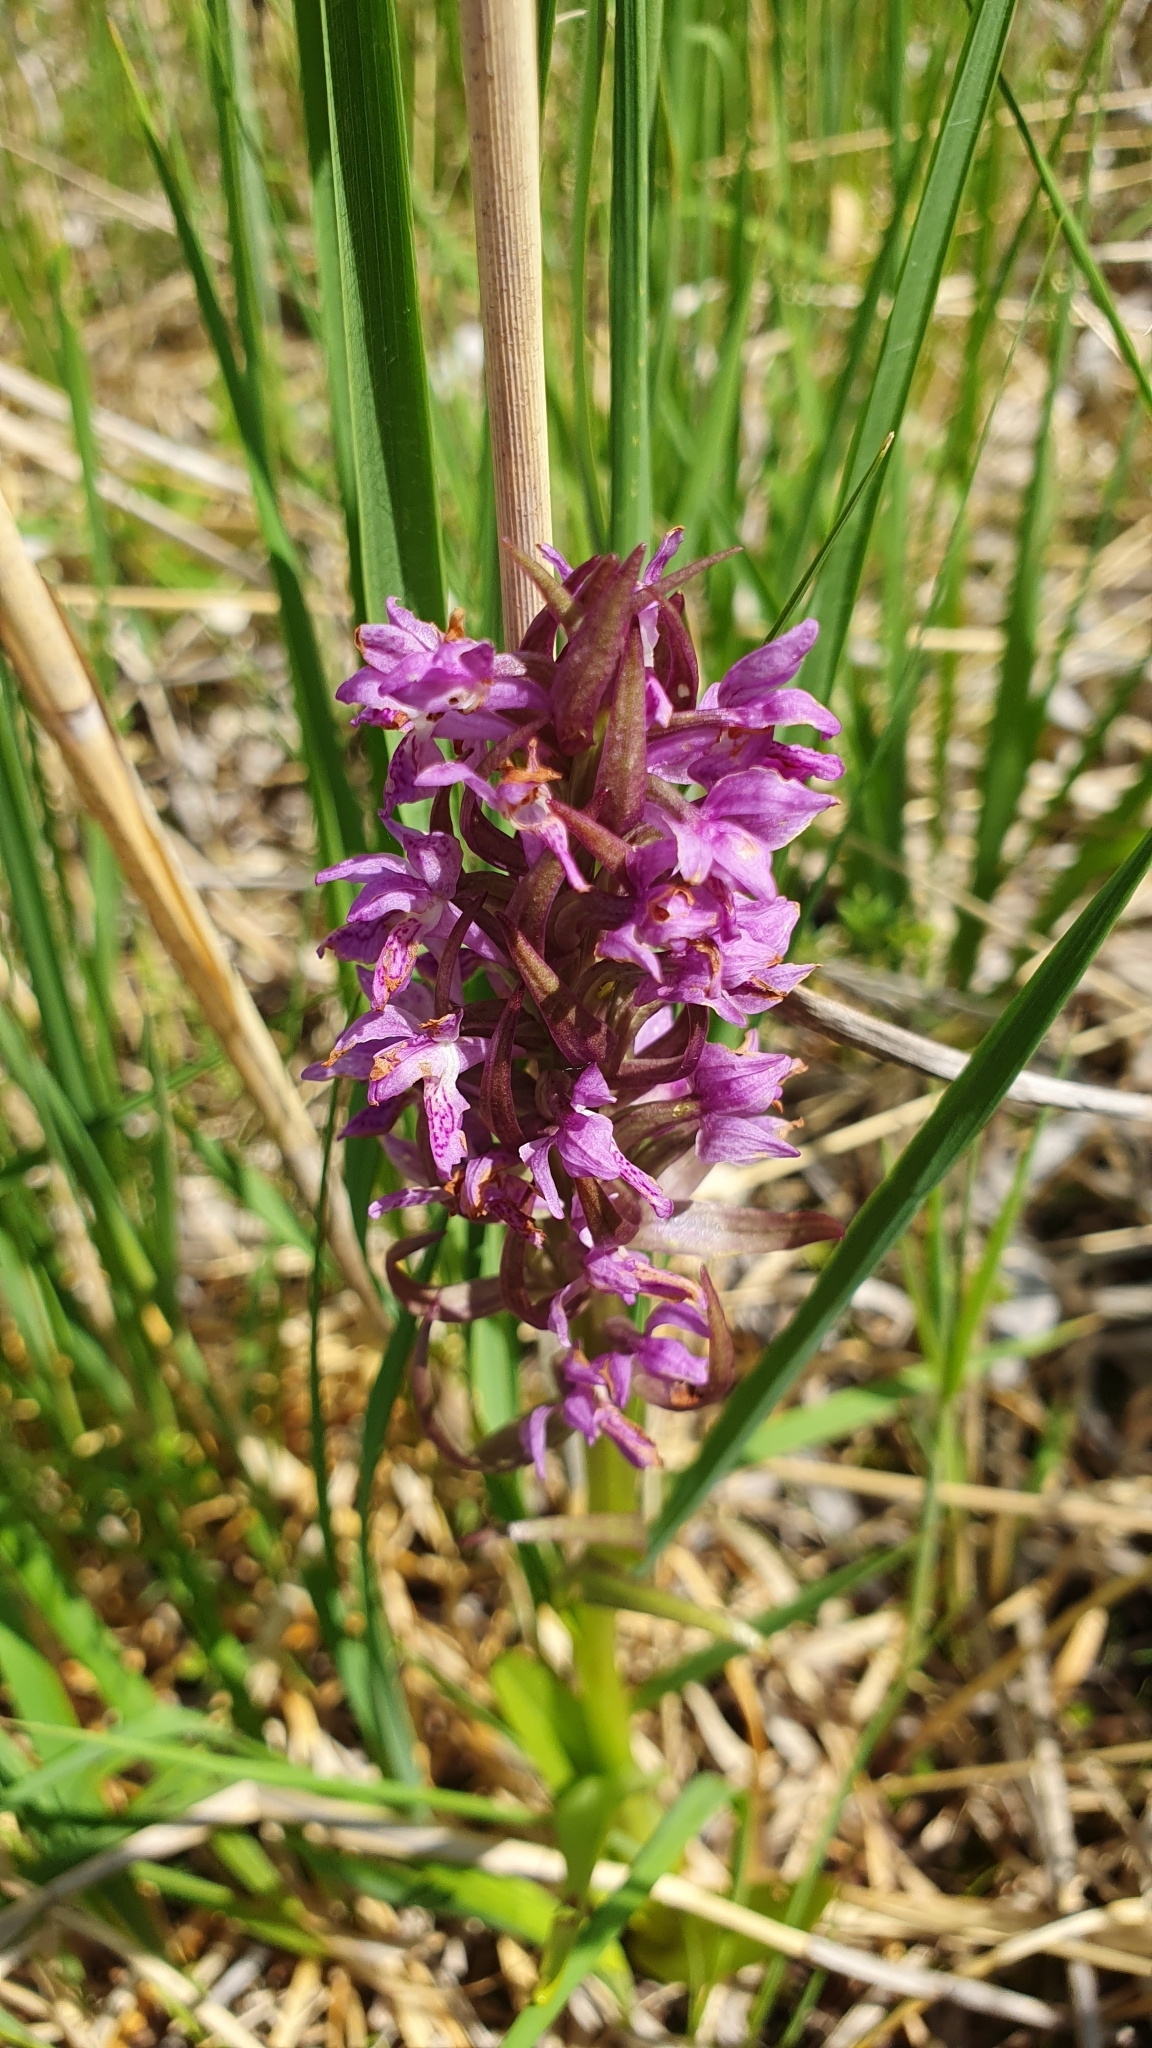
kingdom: Plantae
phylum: Tracheophyta
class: Liliopsida
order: Asparagales
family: Orchidaceae
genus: Dactylorhiza
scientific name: Dactylorhiza incarnata
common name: Early marsh-orchid
